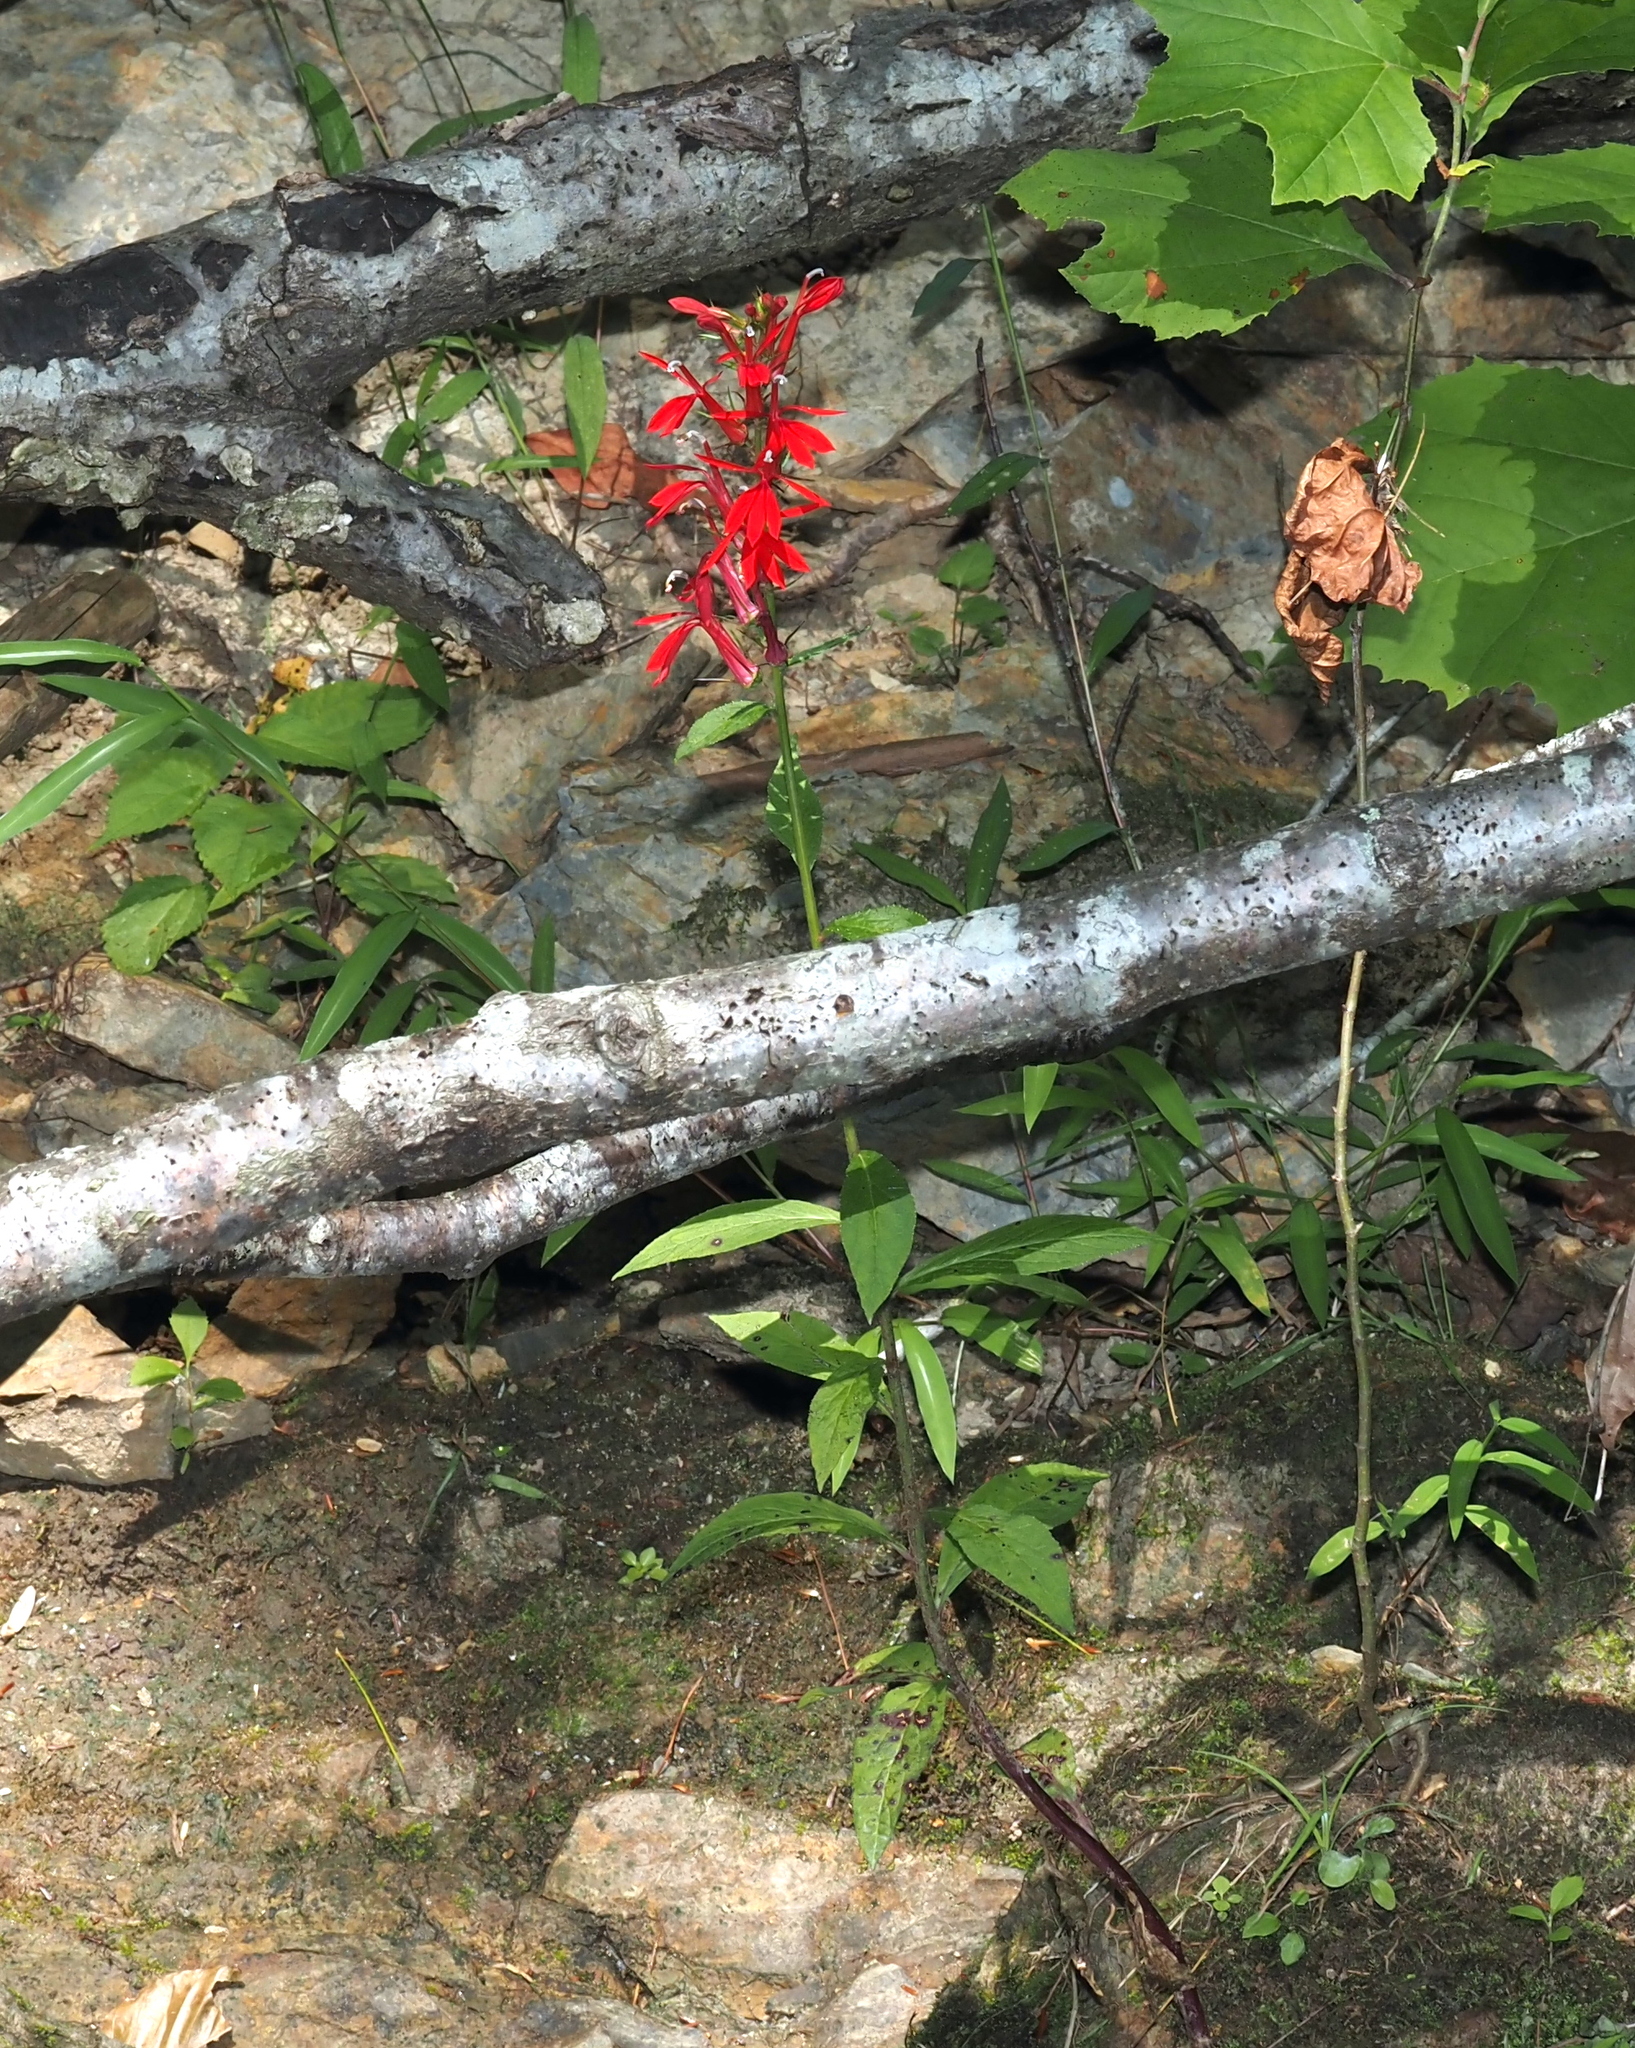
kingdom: Plantae
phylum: Tracheophyta
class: Magnoliopsida
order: Asterales
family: Campanulaceae
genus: Lobelia
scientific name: Lobelia cardinalis
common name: Cardinal flower
